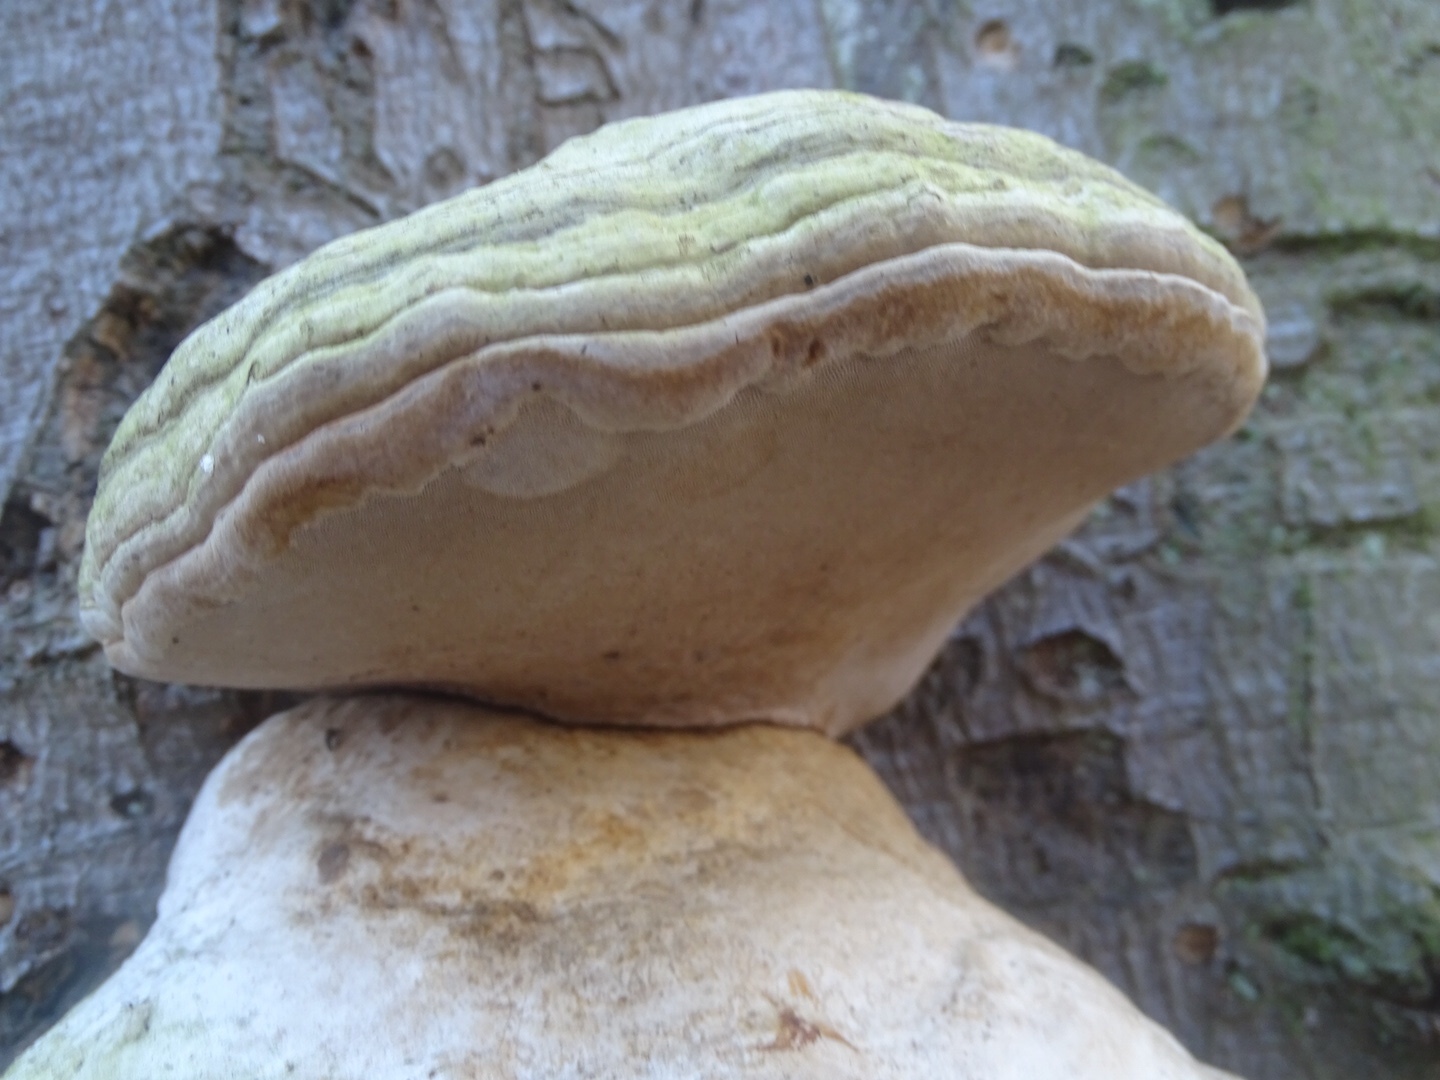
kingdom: Fungi
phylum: Basidiomycota
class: Agaricomycetes
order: Polyporales
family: Polyporaceae
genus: Fomes
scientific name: Fomes fomentarius
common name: Hoof fungus
